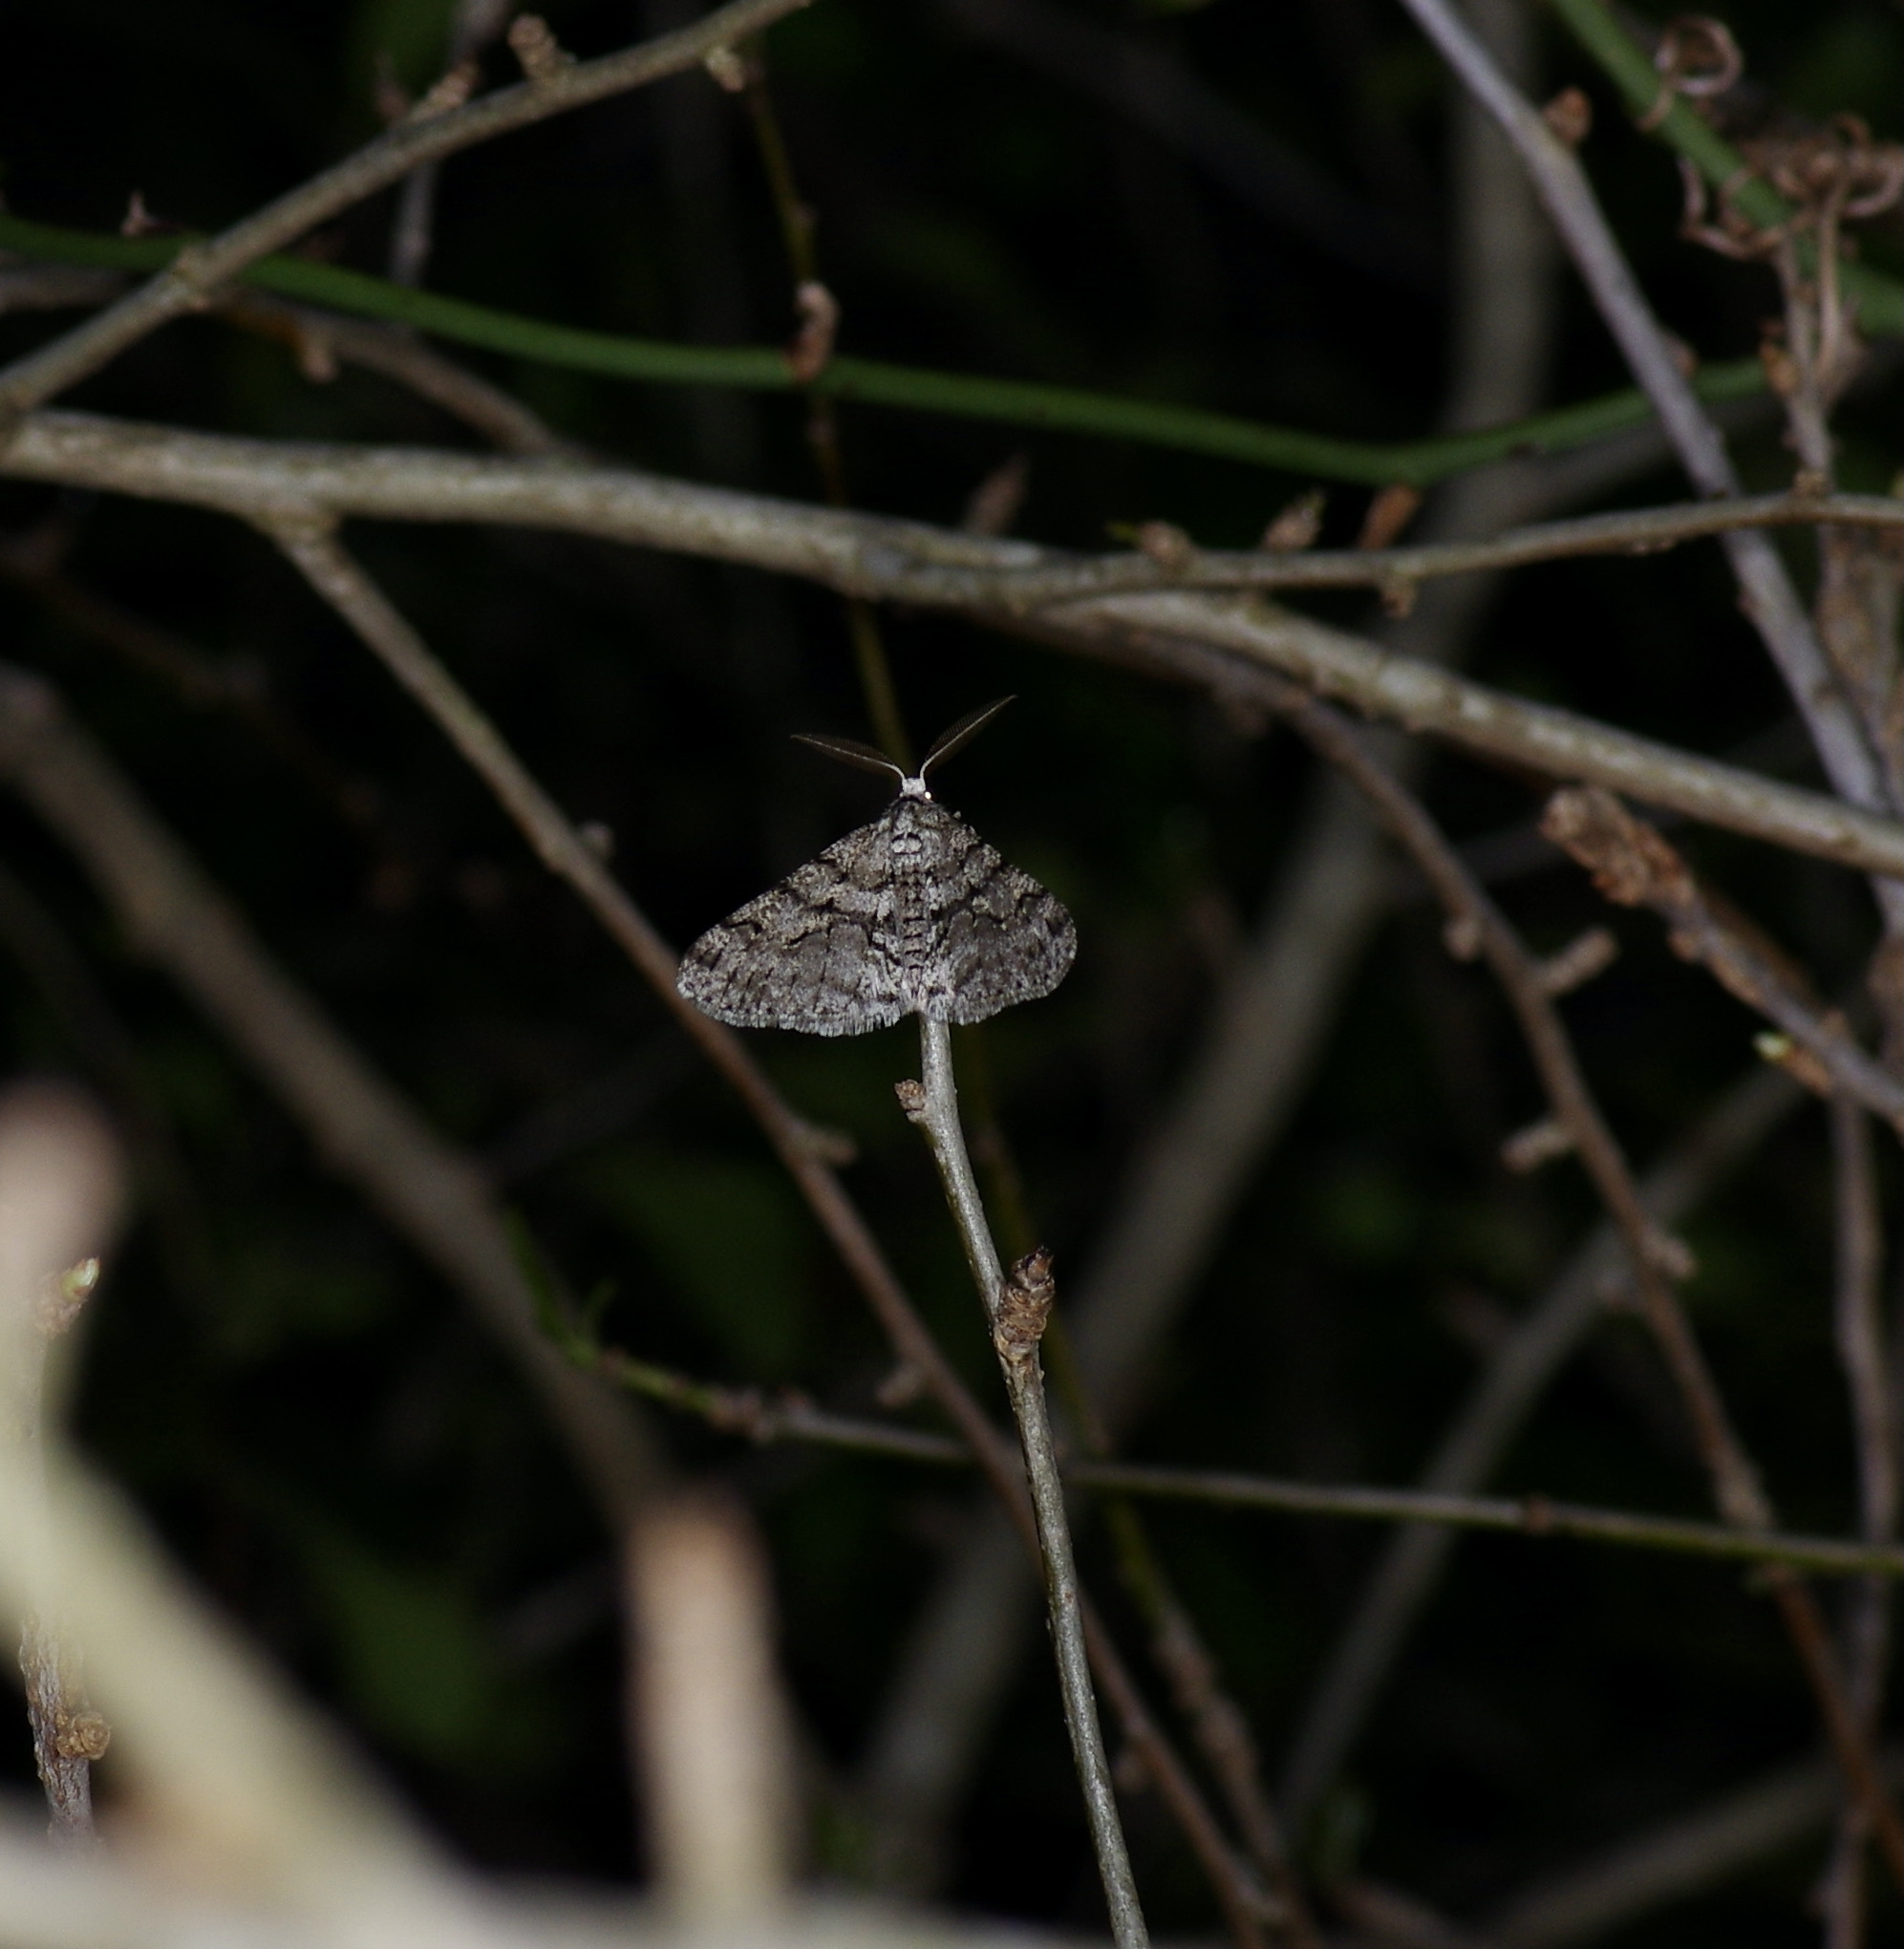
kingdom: Animalia
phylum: Arthropoda
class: Insecta
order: Lepidoptera
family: Geometridae
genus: Phigalia
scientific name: Phigalia titea
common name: Spiny looper
